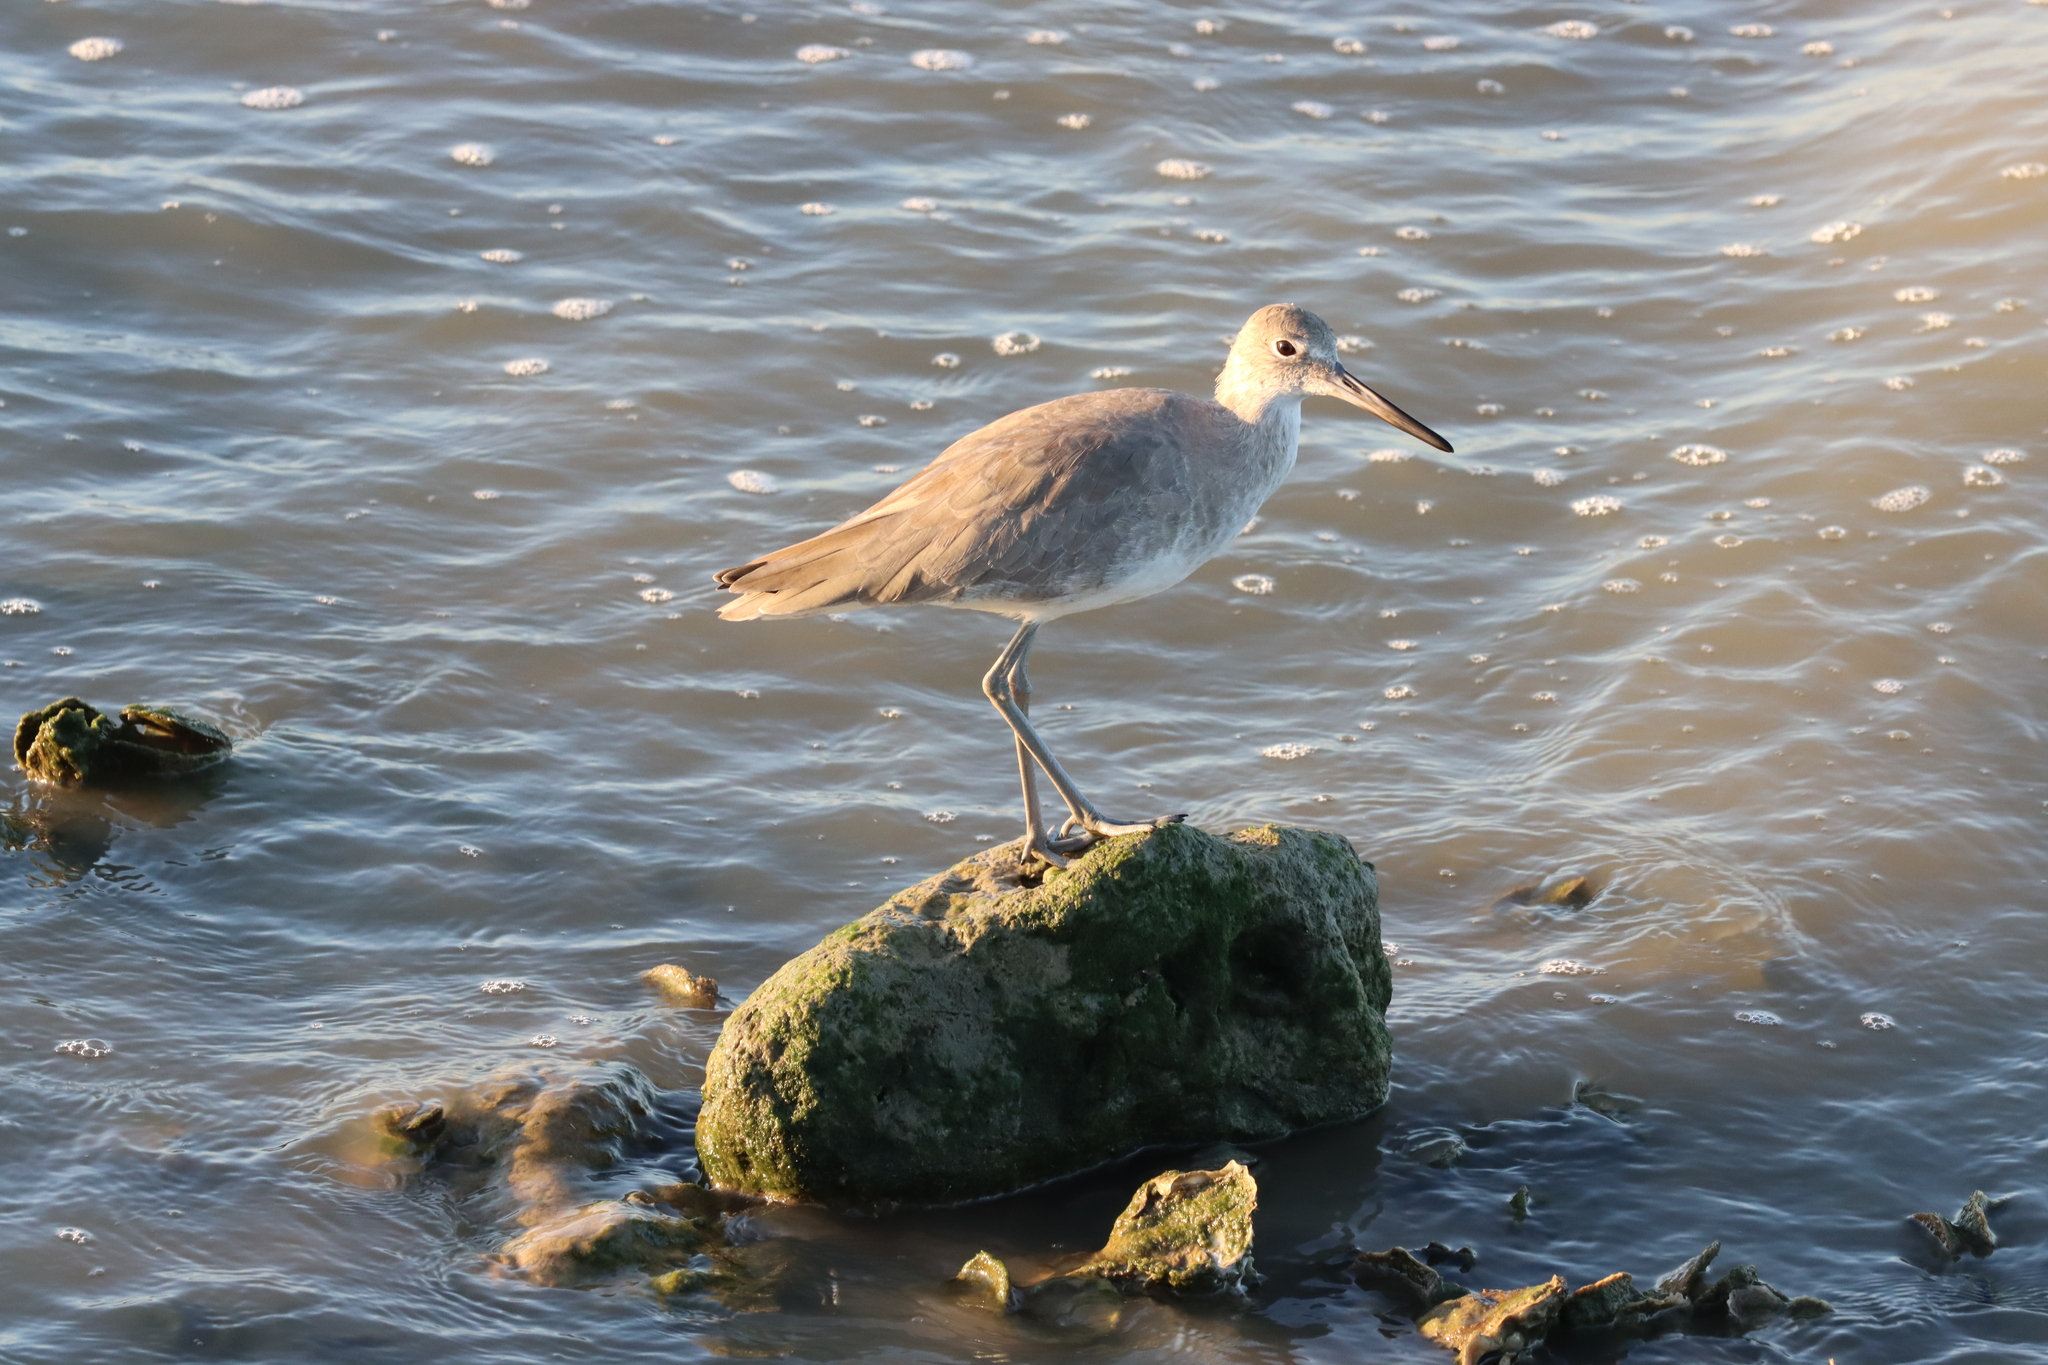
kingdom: Animalia
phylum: Chordata
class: Aves
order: Charadriiformes
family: Scolopacidae
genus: Tringa
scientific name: Tringa semipalmata
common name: Willet
